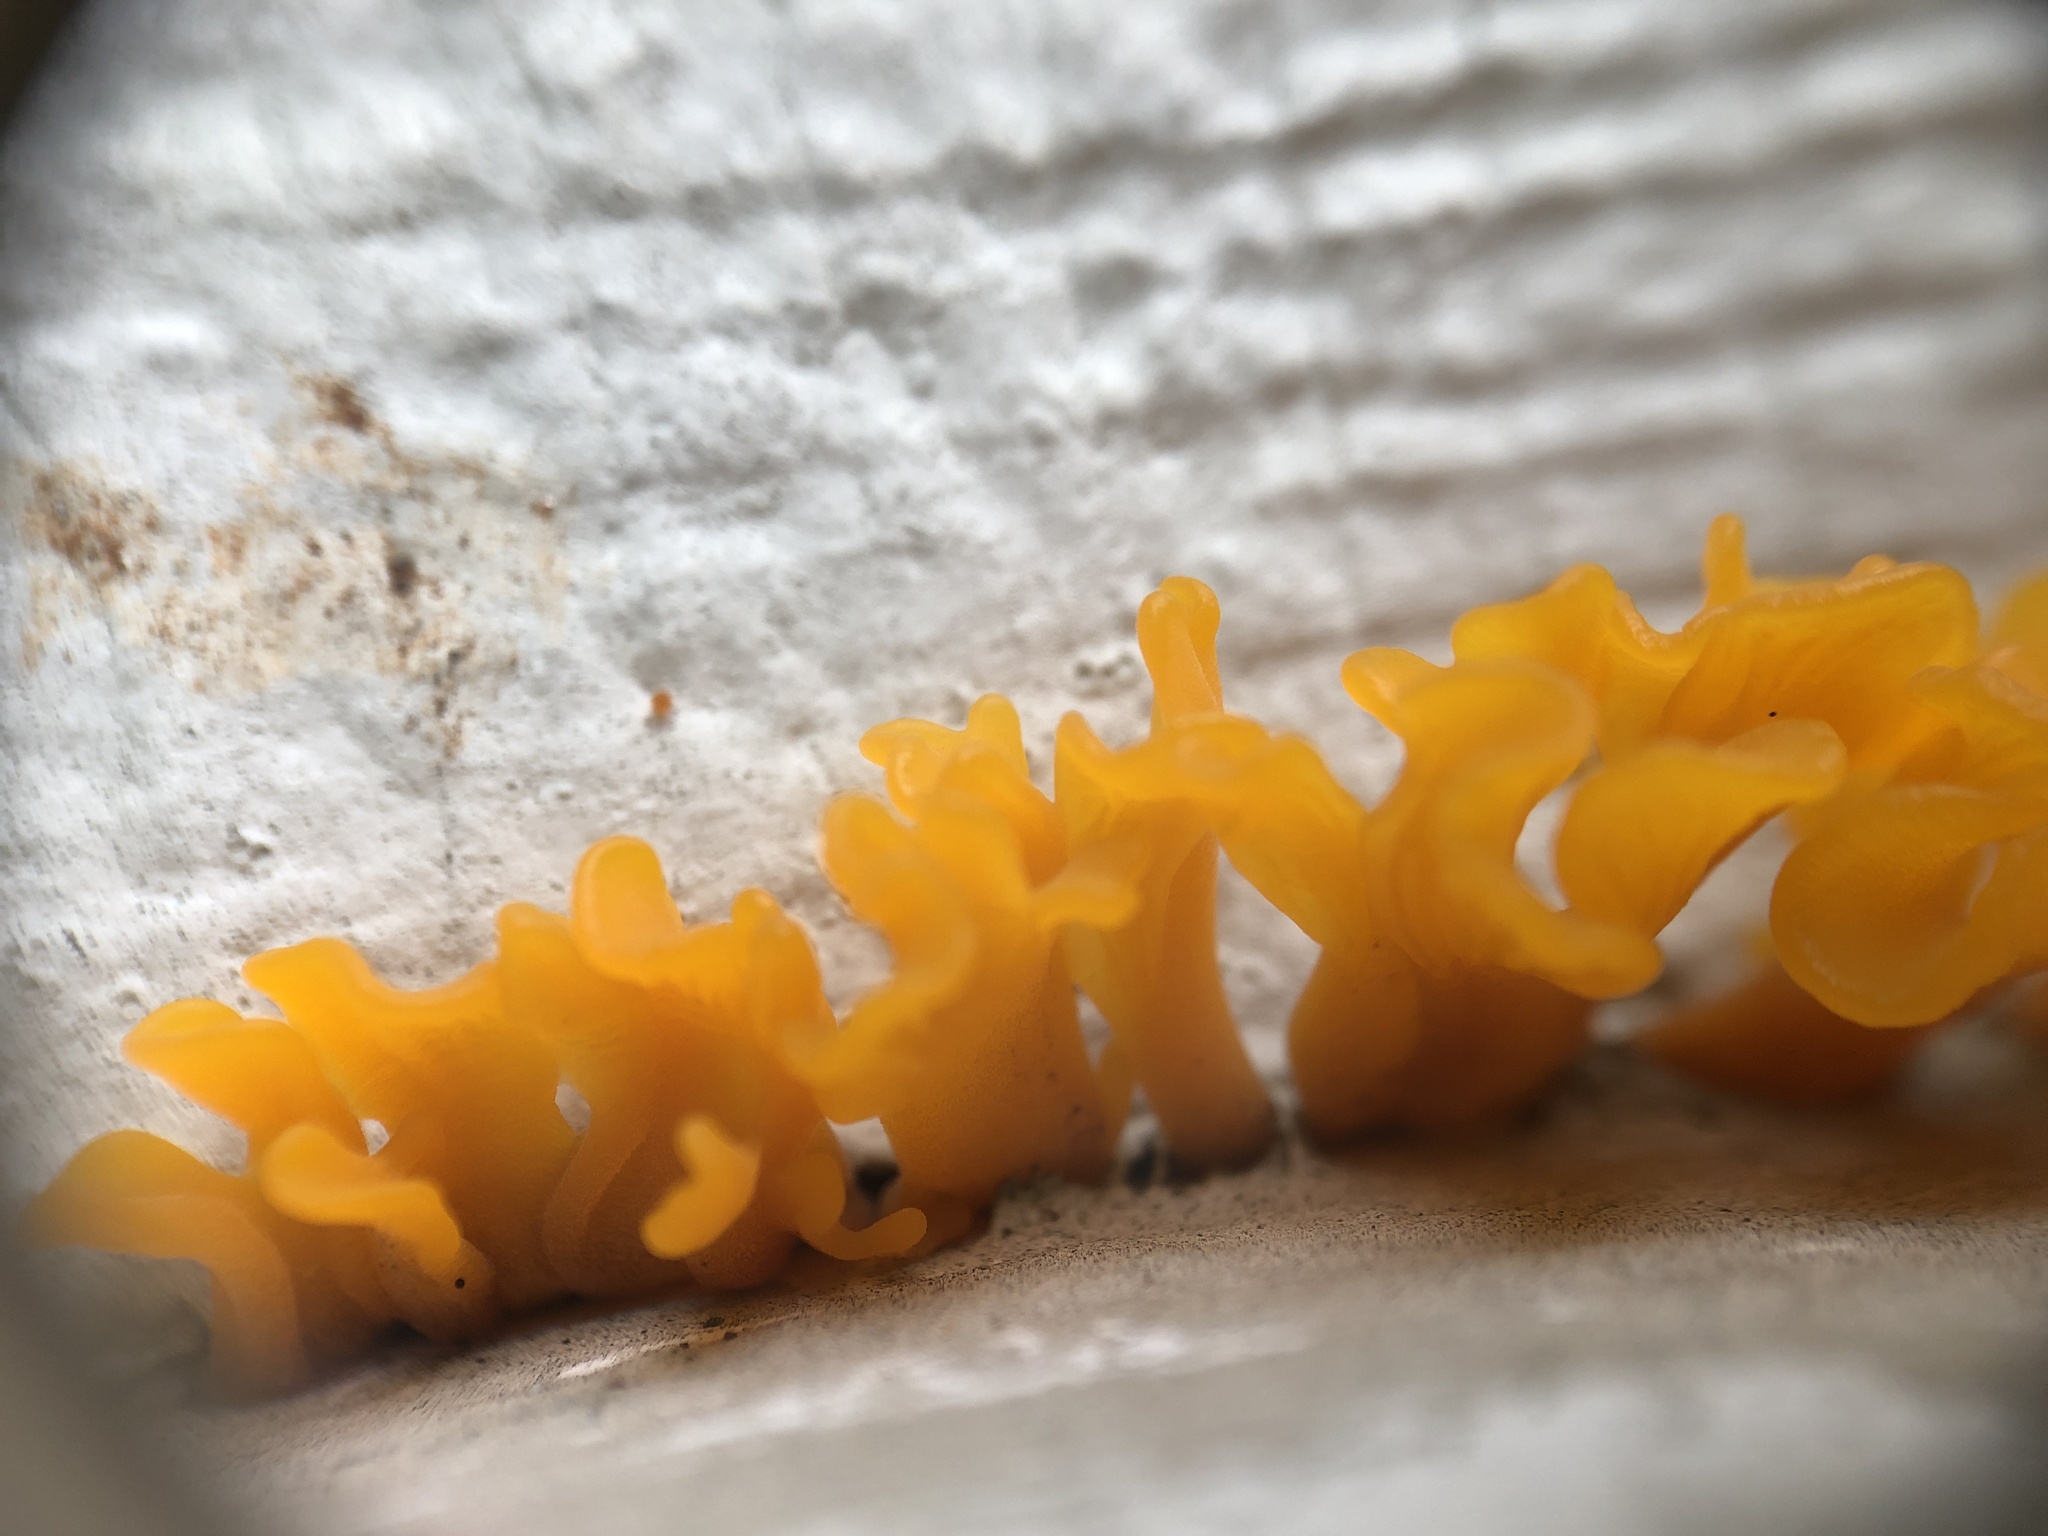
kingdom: Fungi
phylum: Basidiomycota
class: Dacrymycetes
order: Dacrymycetales
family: Dacrymycetaceae
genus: Dacrymyces
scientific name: Dacrymyces spathularius
